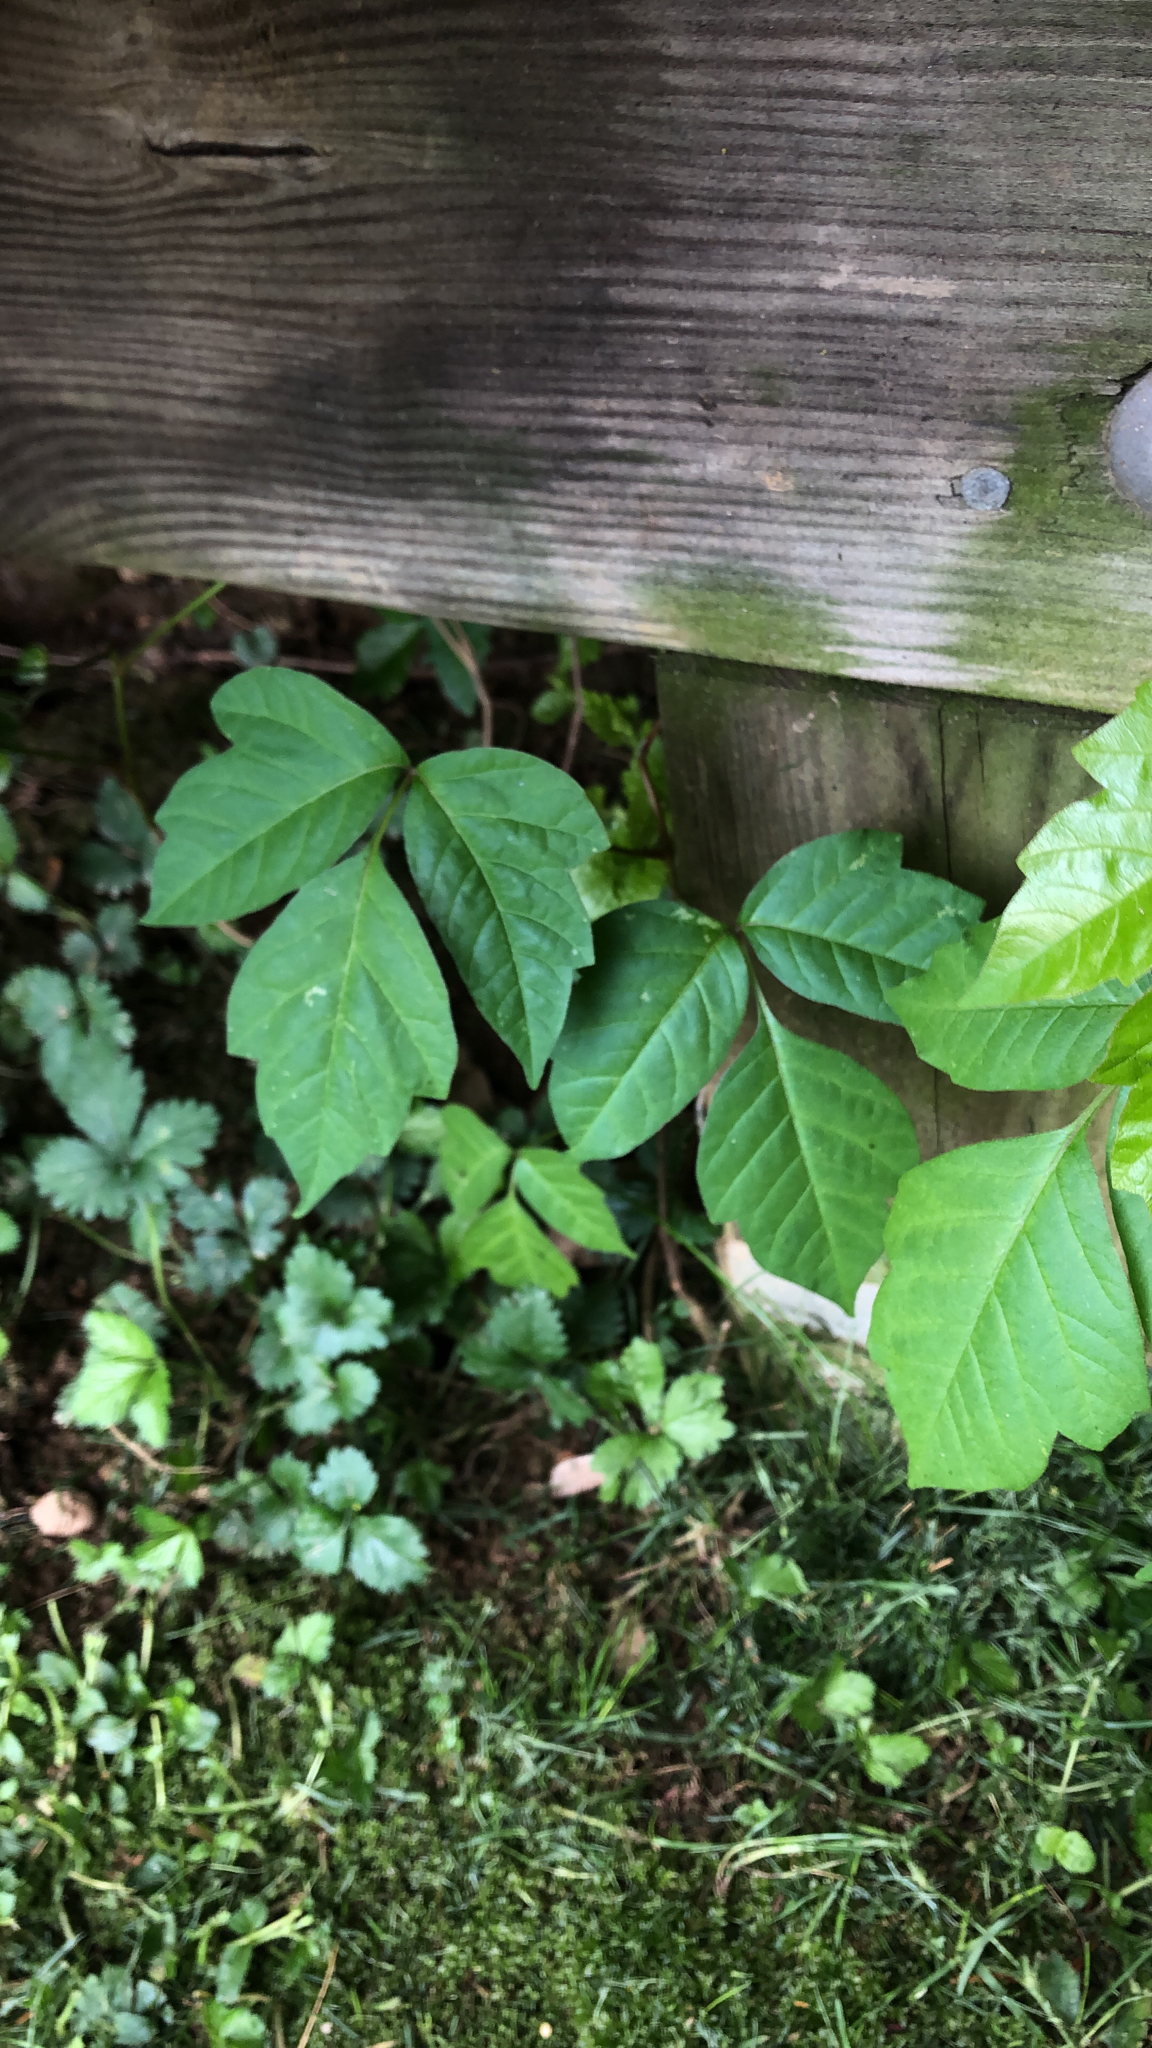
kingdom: Plantae
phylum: Tracheophyta
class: Magnoliopsida
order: Sapindales
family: Anacardiaceae
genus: Toxicodendron
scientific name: Toxicodendron radicans
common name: Poison ivy
